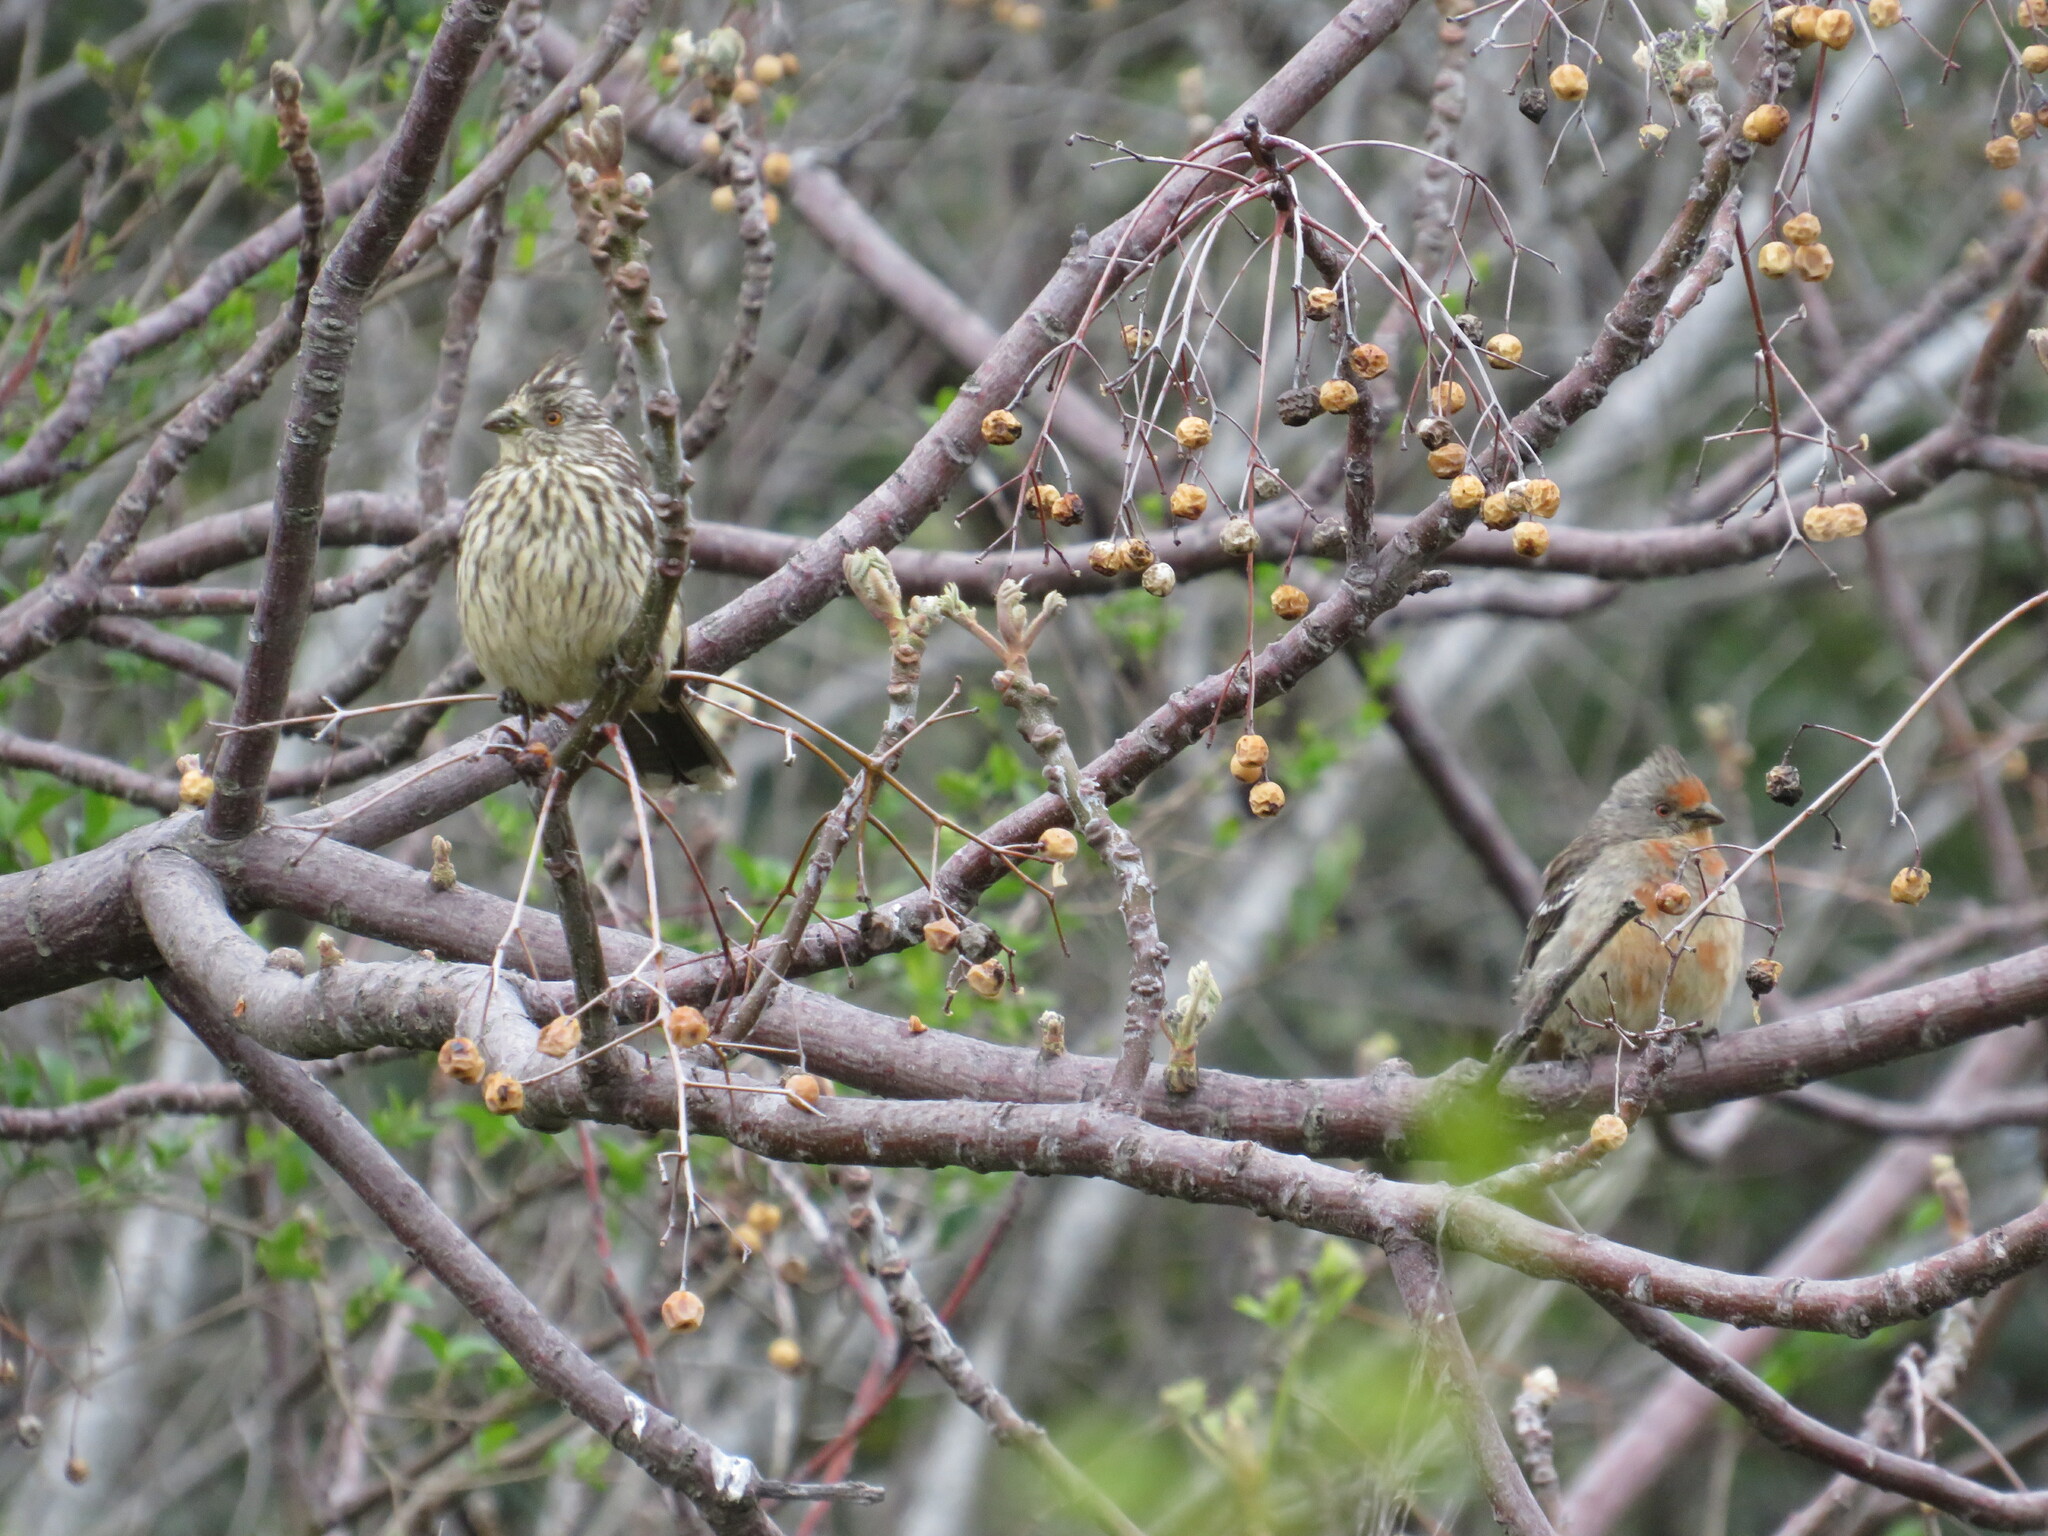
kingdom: Animalia
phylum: Chordata
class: Aves
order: Passeriformes
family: Cotingidae
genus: Phytotoma
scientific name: Phytotoma rutila
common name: White-tipped plantcutter
